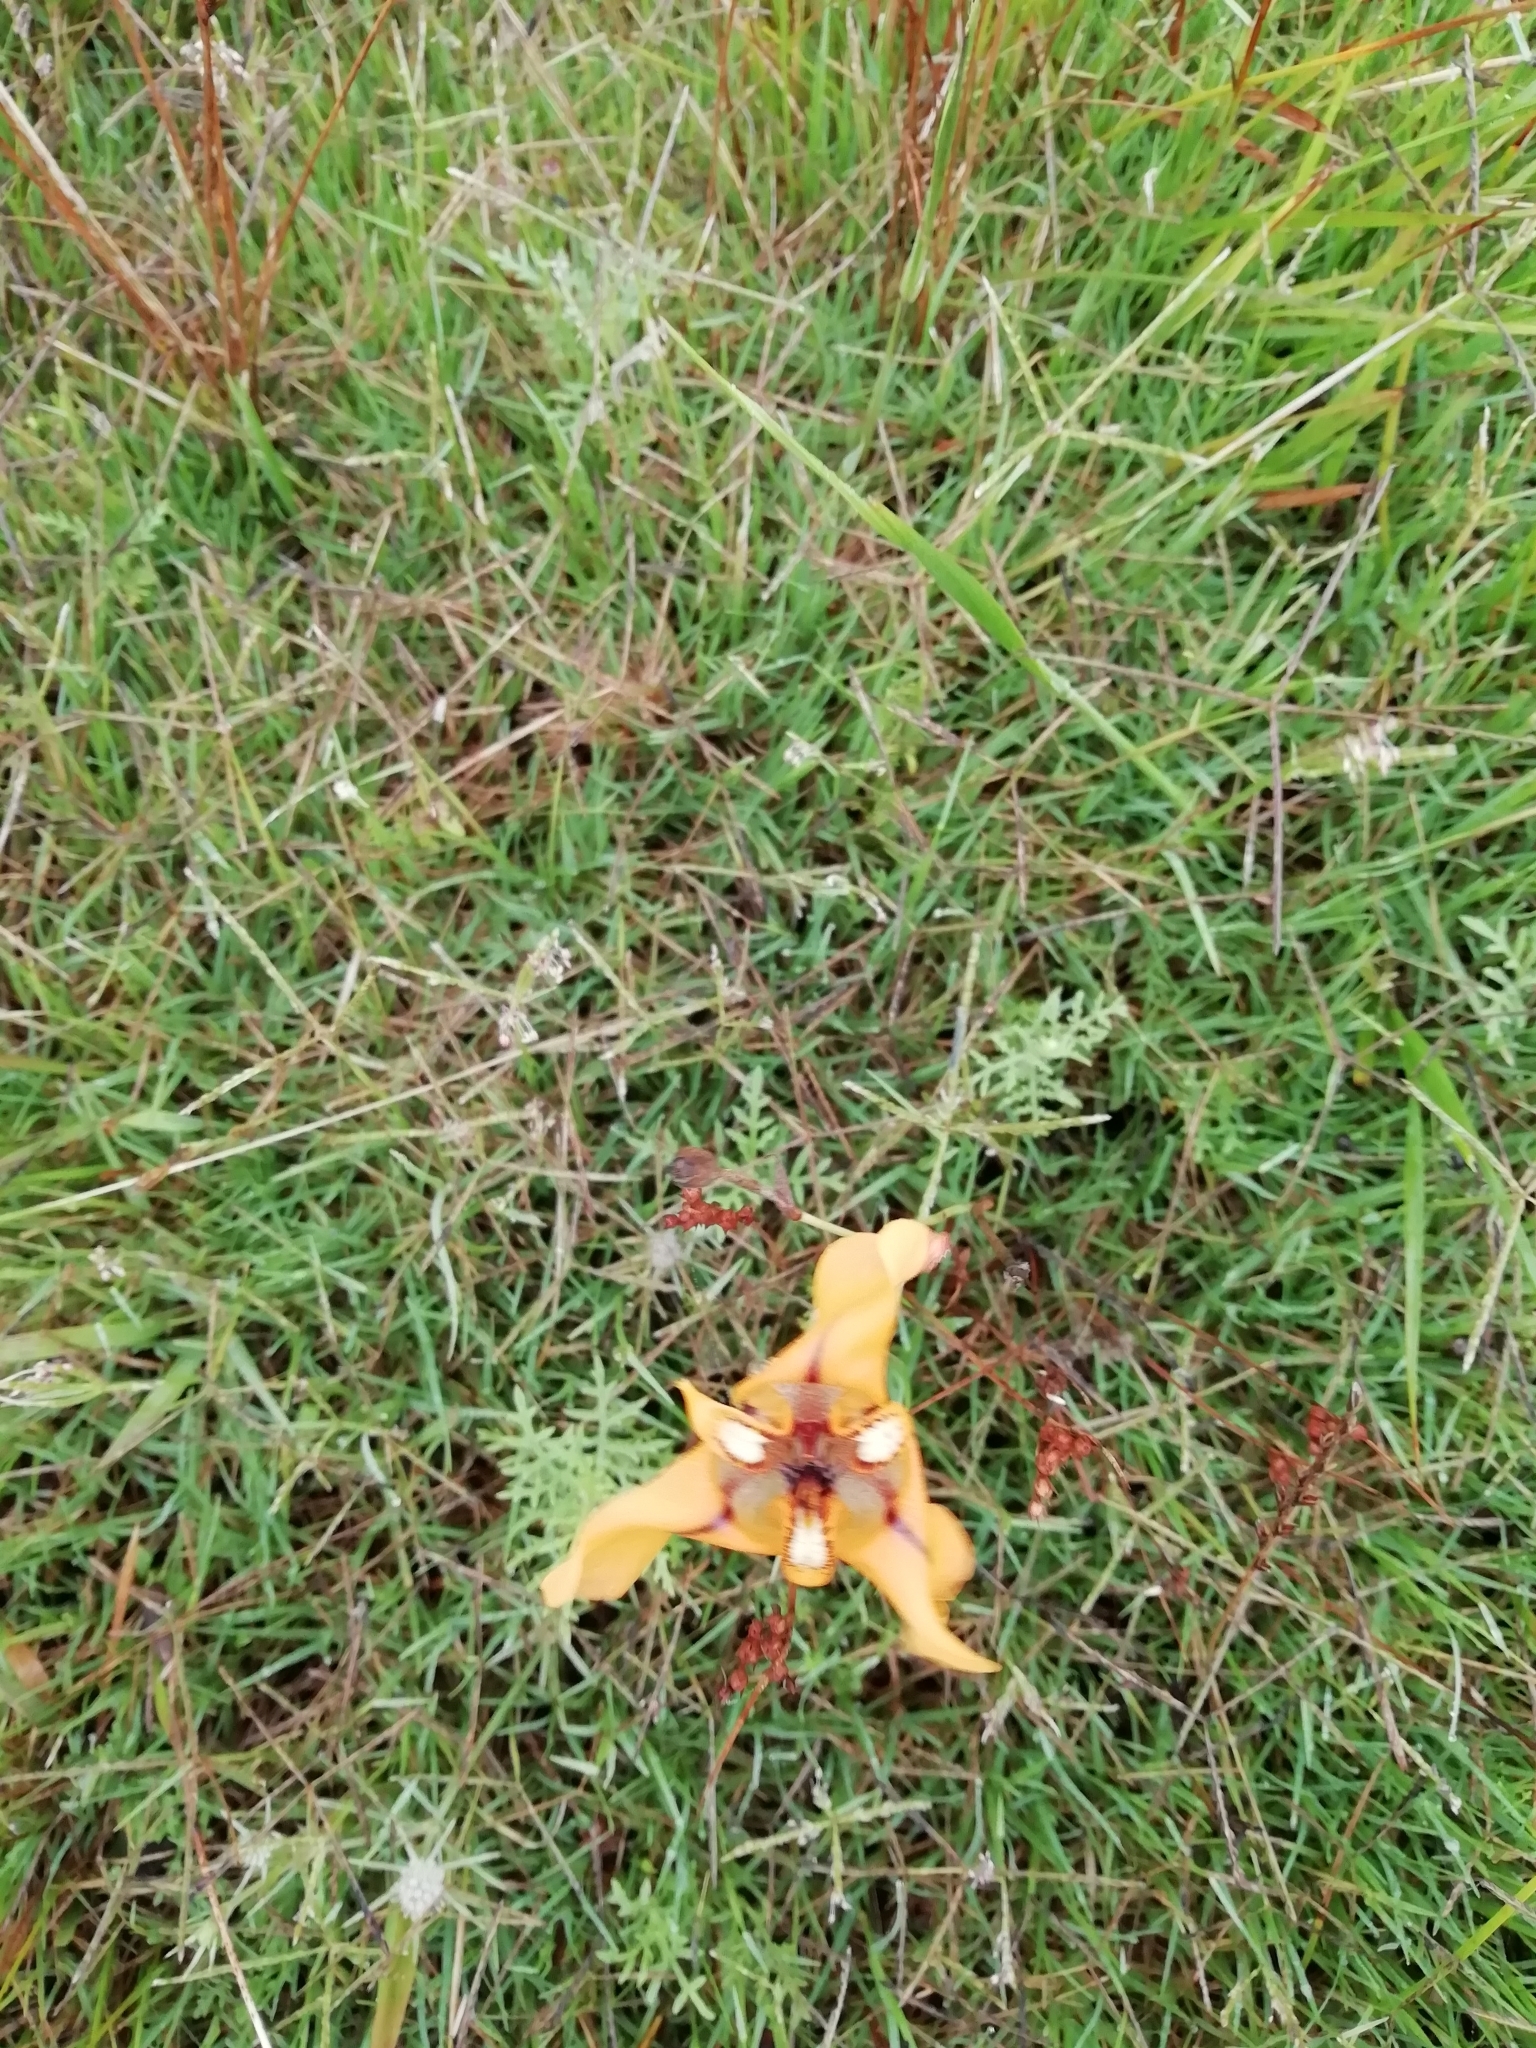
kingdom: Plantae
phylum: Tracheophyta
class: Liliopsida
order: Asparagales
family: Iridaceae
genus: Cypella
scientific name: Cypella herbertii
